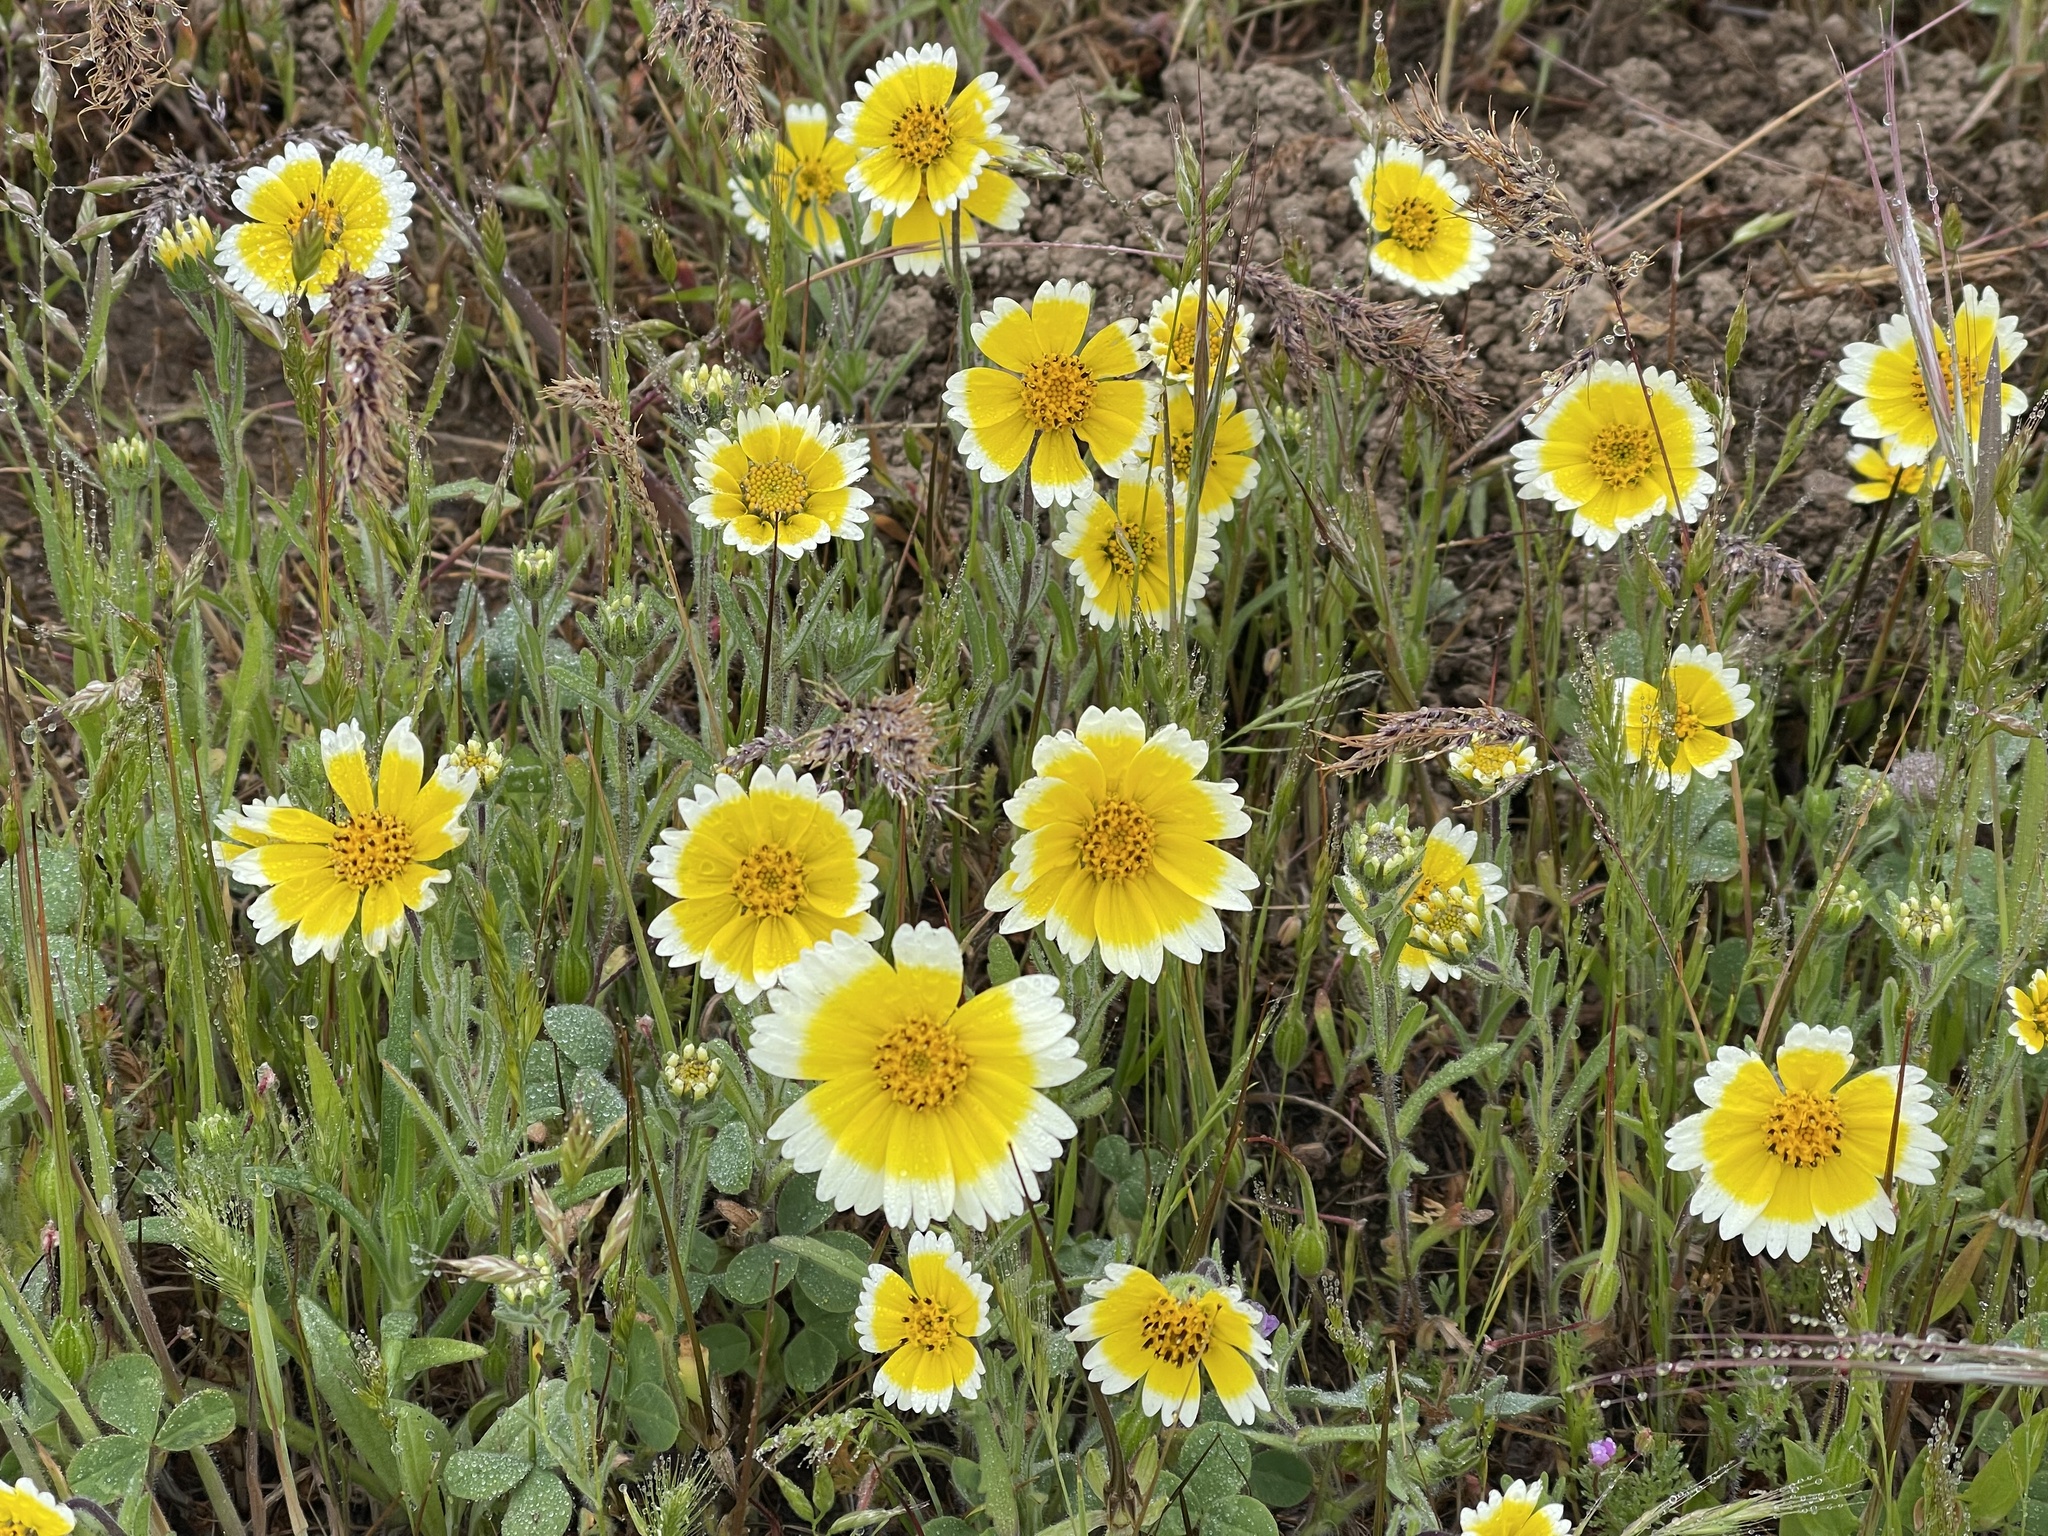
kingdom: Plantae
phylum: Tracheophyta
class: Magnoliopsida
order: Asterales
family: Asteraceae
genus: Layia
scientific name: Layia platyglossa
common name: Tidy-tips
